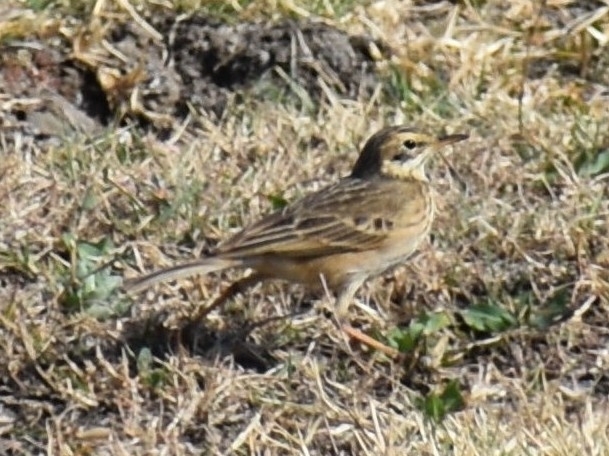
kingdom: Animalia
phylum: Chordata
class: Aves
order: Passeriformes
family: Motacillidae
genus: Anthus
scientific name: Anthus cinnamomeus
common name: African pipit
